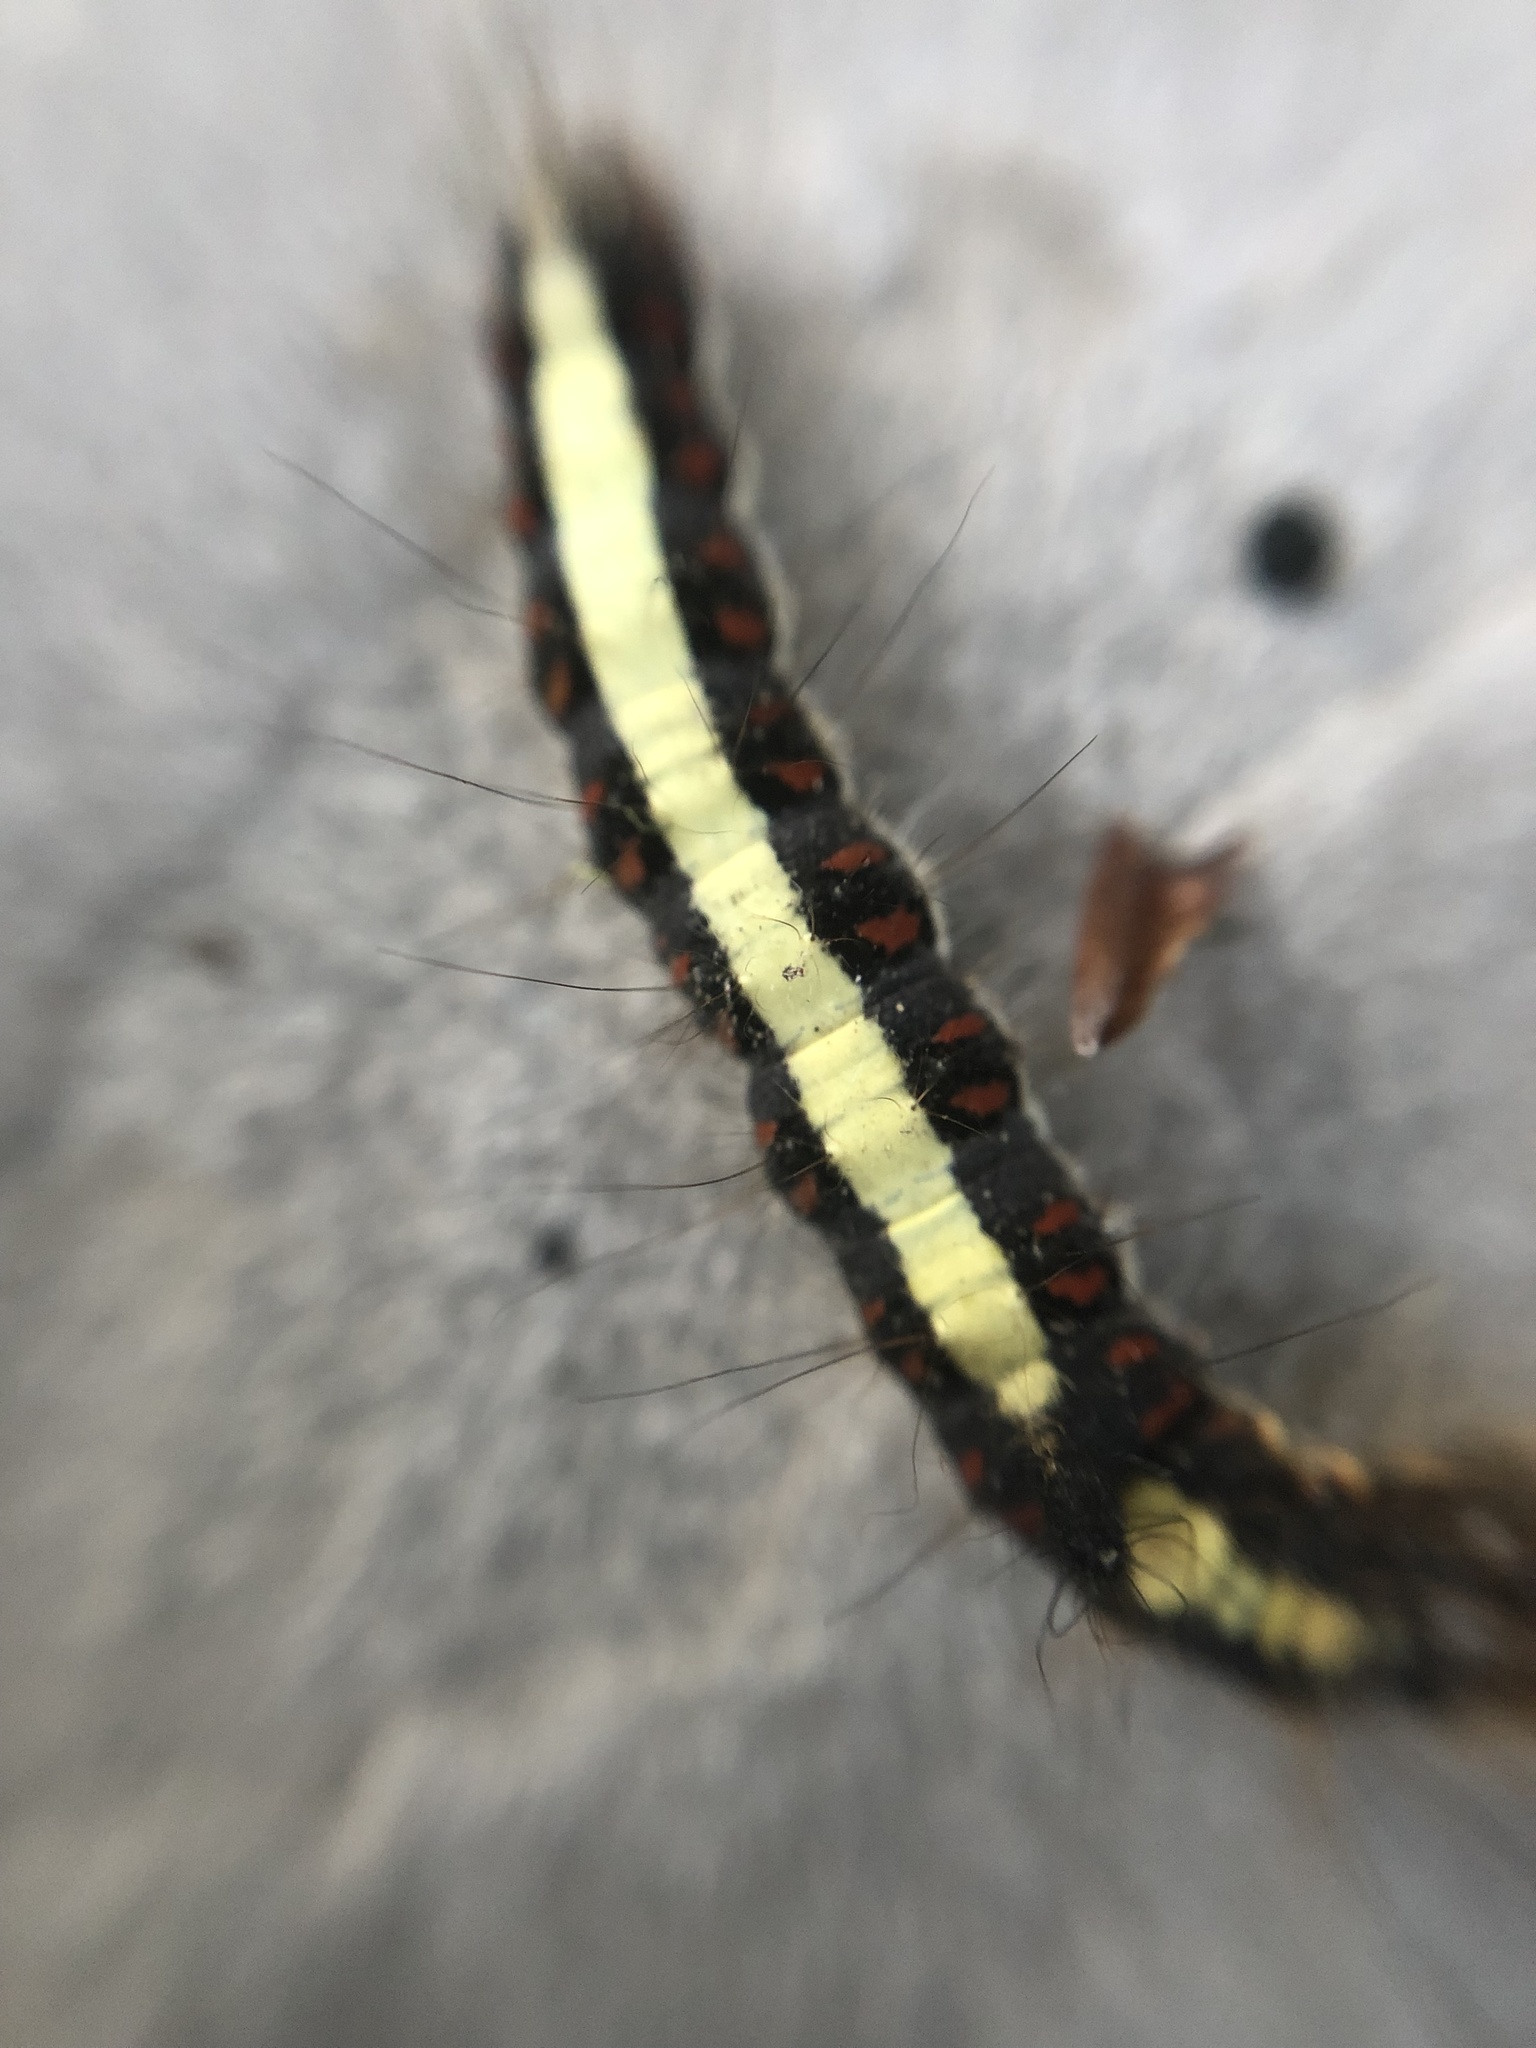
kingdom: Animalia
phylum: Arthropoda
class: Insecta
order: Lepidoptera
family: Noctuidae
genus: Acronicta
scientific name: Acronicta psi
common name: Grey dagger
